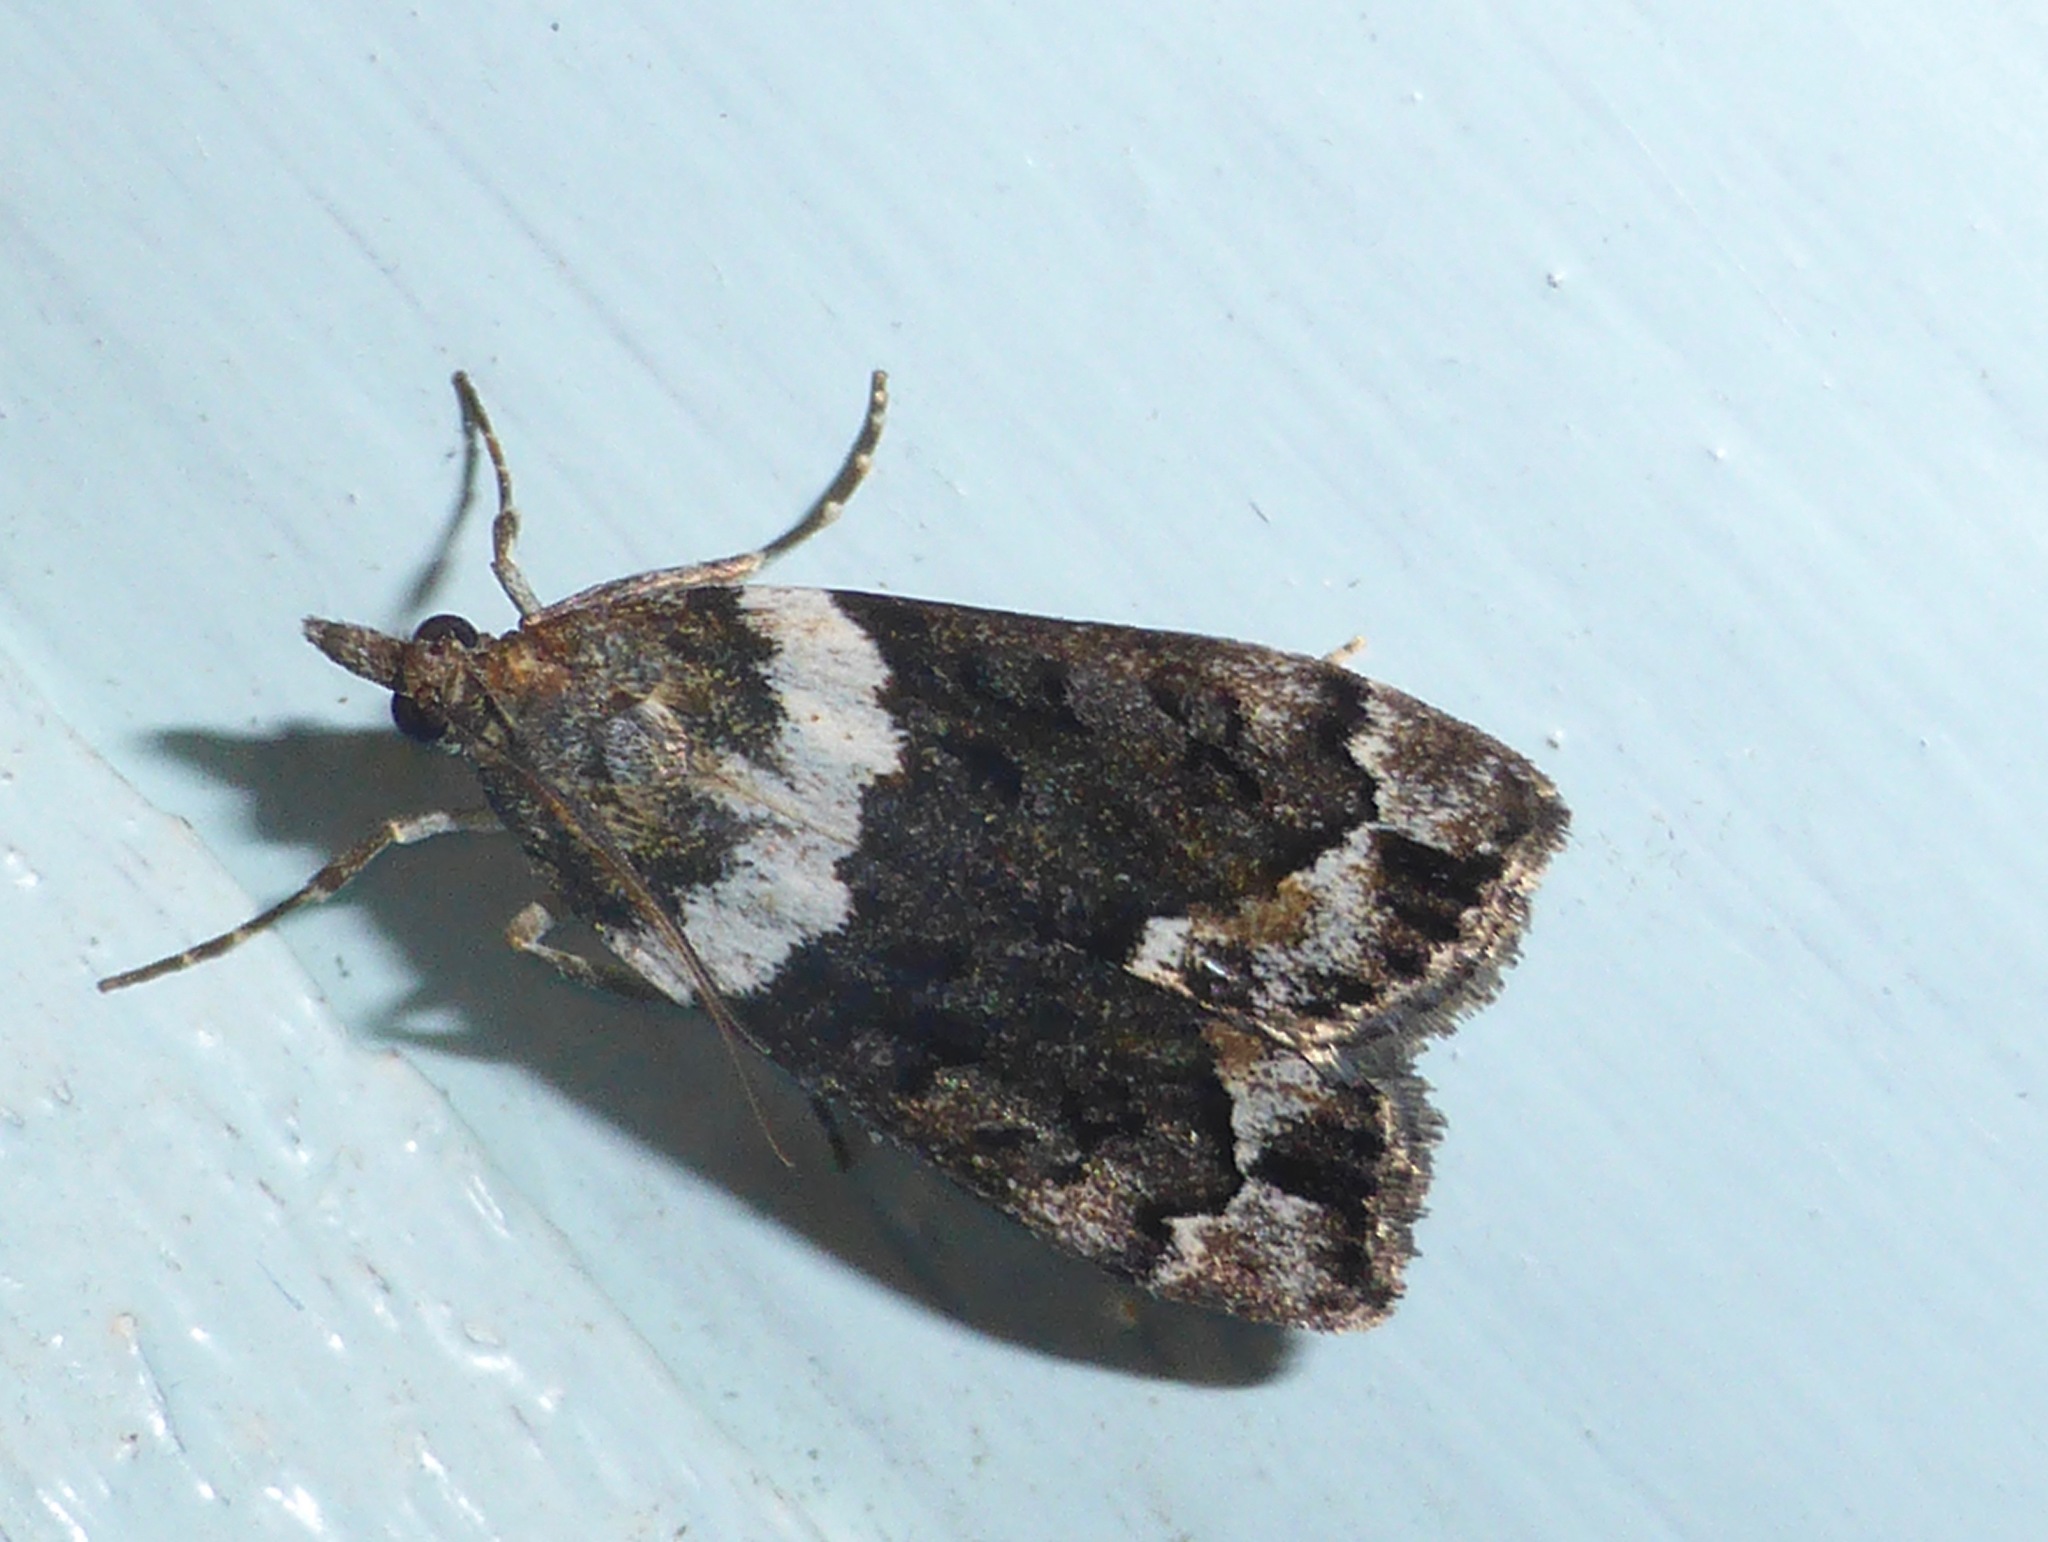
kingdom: Animalia
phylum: Arthropoda
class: Insecta
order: Lepidoptera
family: Crambidae
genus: Eudonia
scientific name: Eudonia submarginalis
